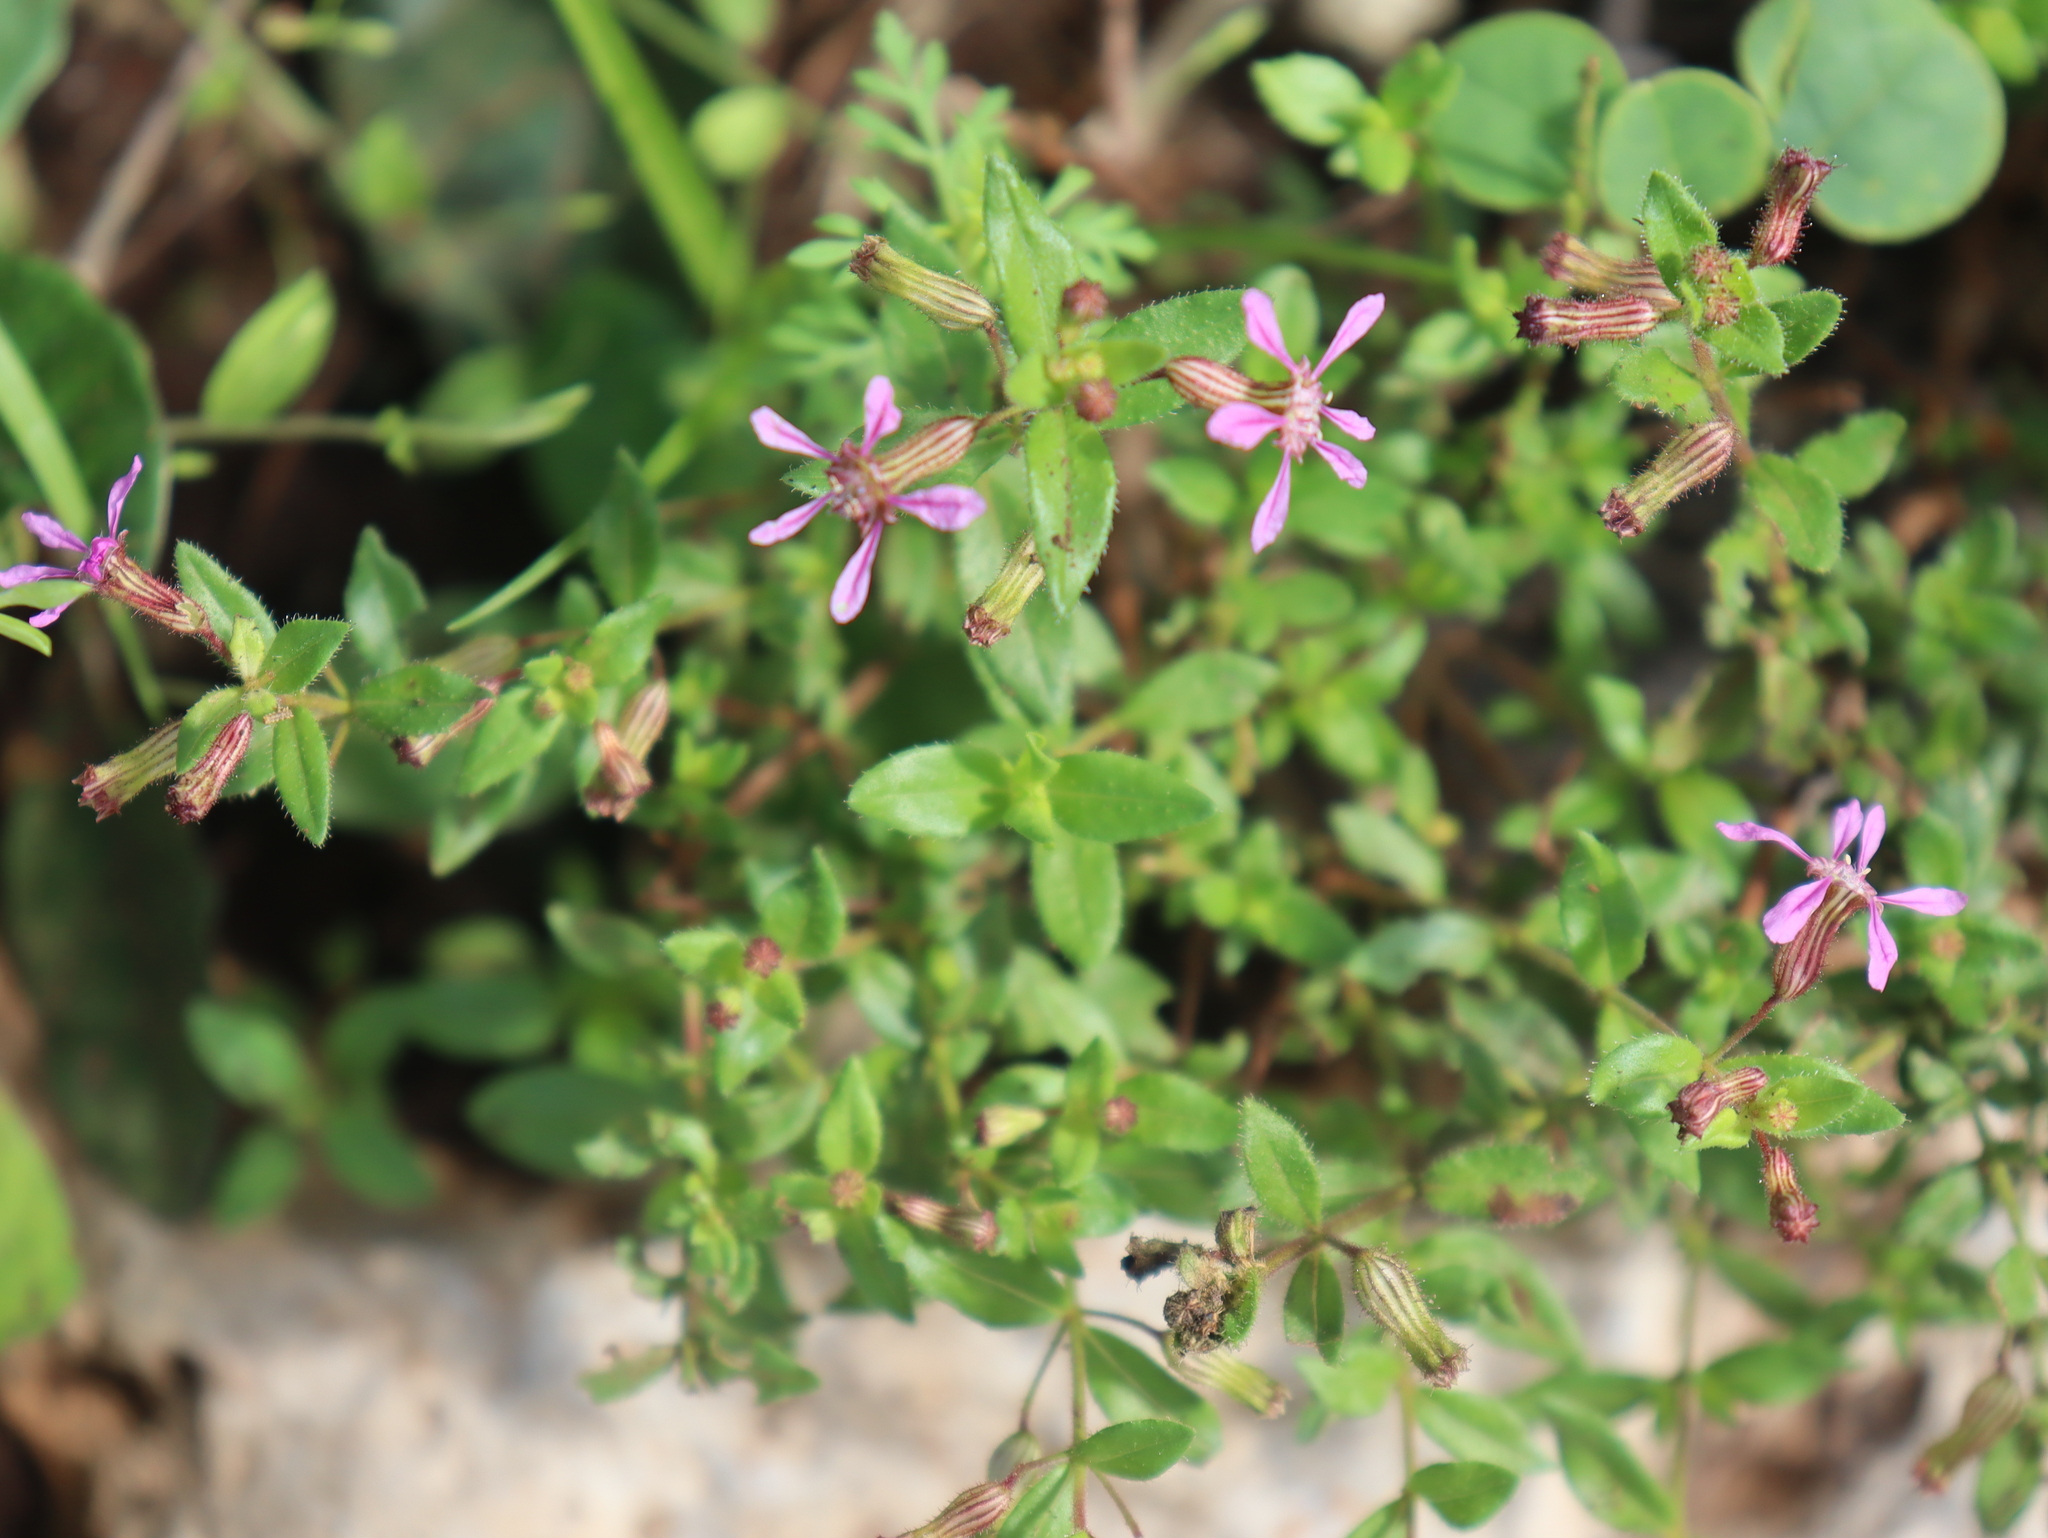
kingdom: Plantae
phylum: Tracheophyta
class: Magnoliopsida
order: Myrtales
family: Lythraceae
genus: Cuphea
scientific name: Cuphea gaumeri
